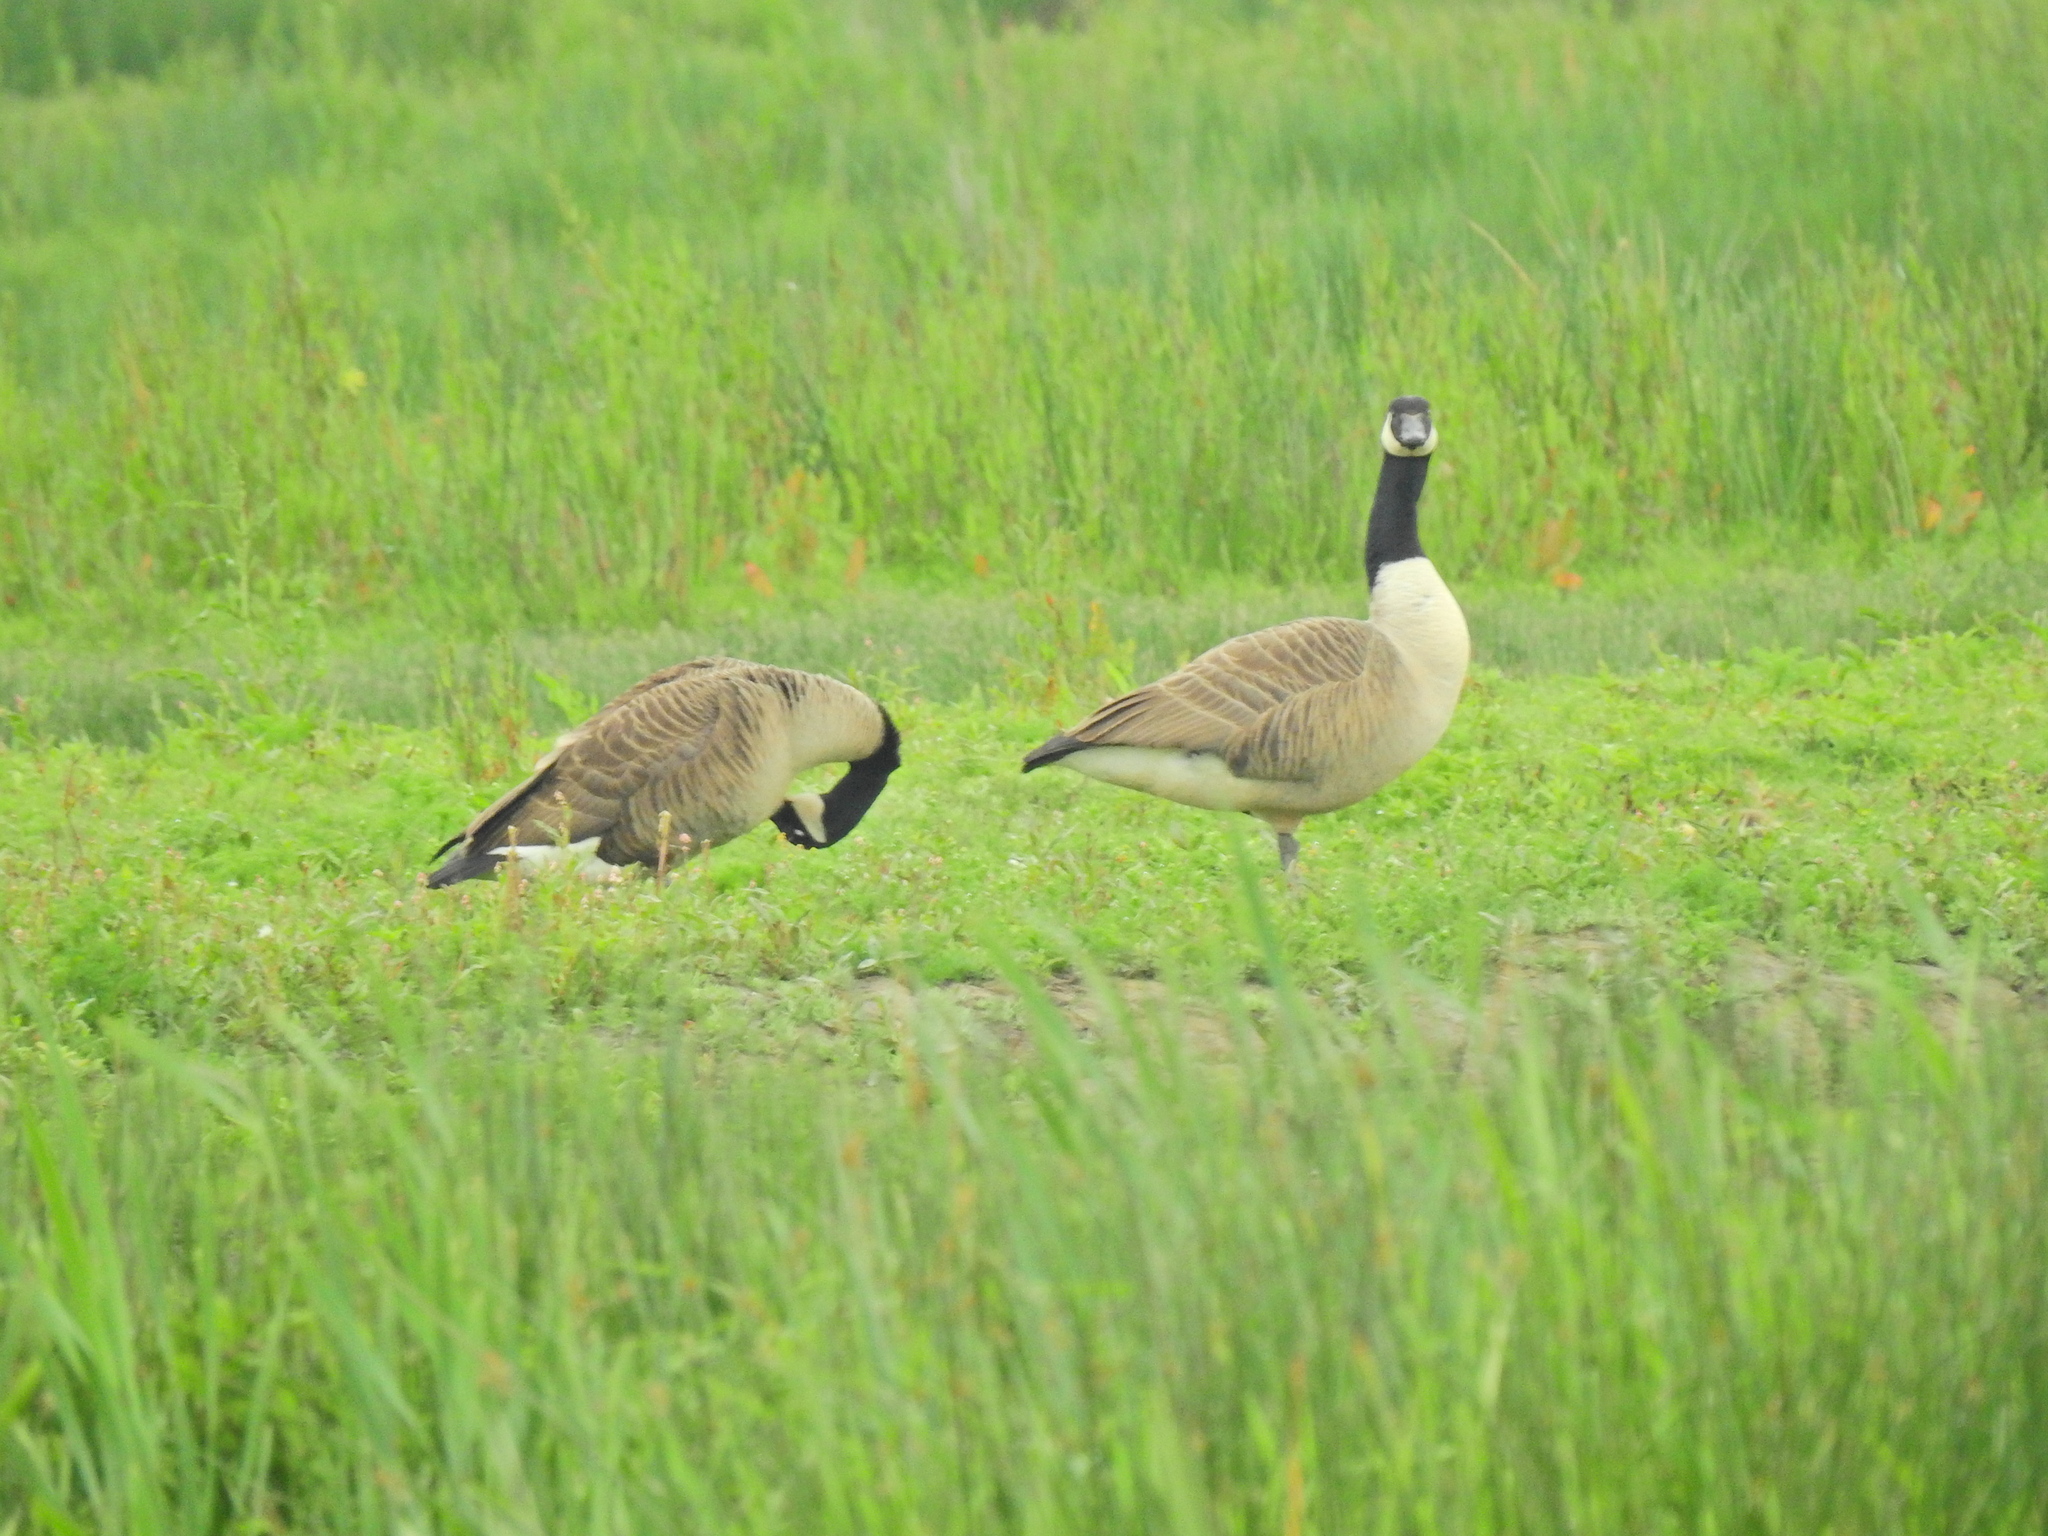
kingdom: Animalia
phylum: Chordata
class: Aves
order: Anseriformes
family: Anatidae
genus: Branta
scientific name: Branta canadensis
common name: Canada goose
